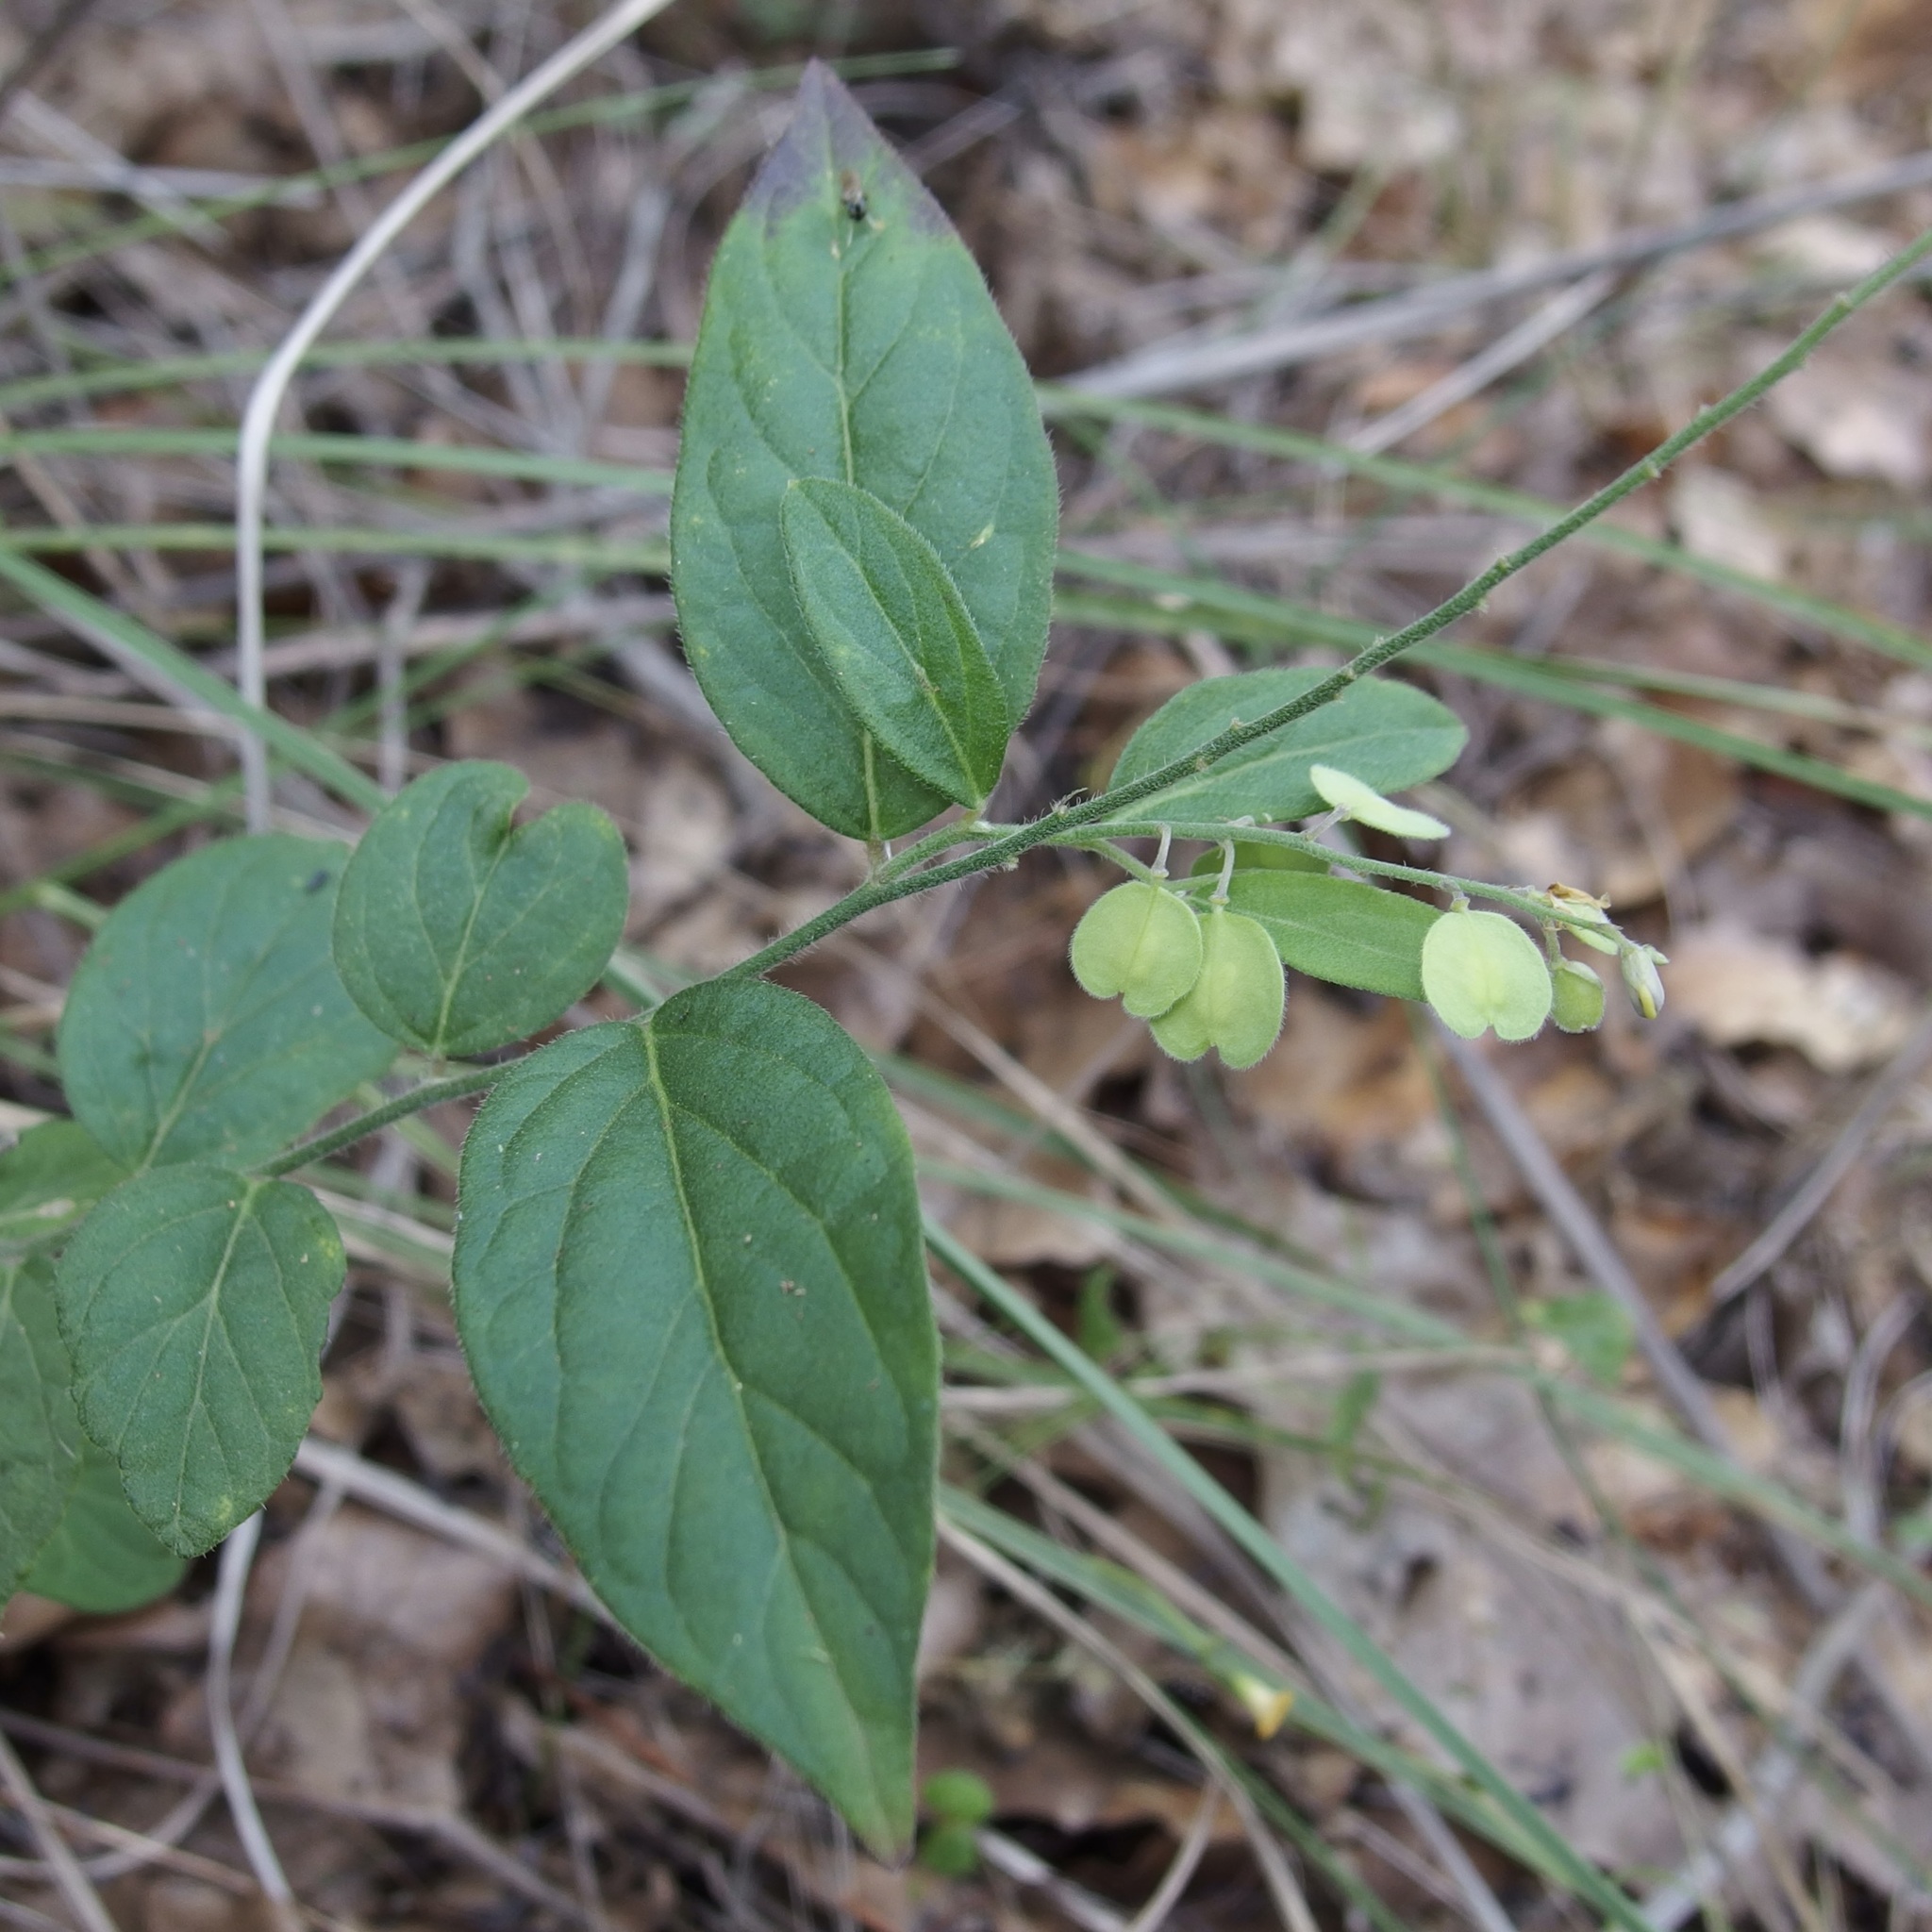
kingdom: Plantae
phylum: Tracheophyta
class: Magnoliopsida
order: Fabales
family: Polygalaceae
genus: Polygala
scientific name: Polygala amphothrix
